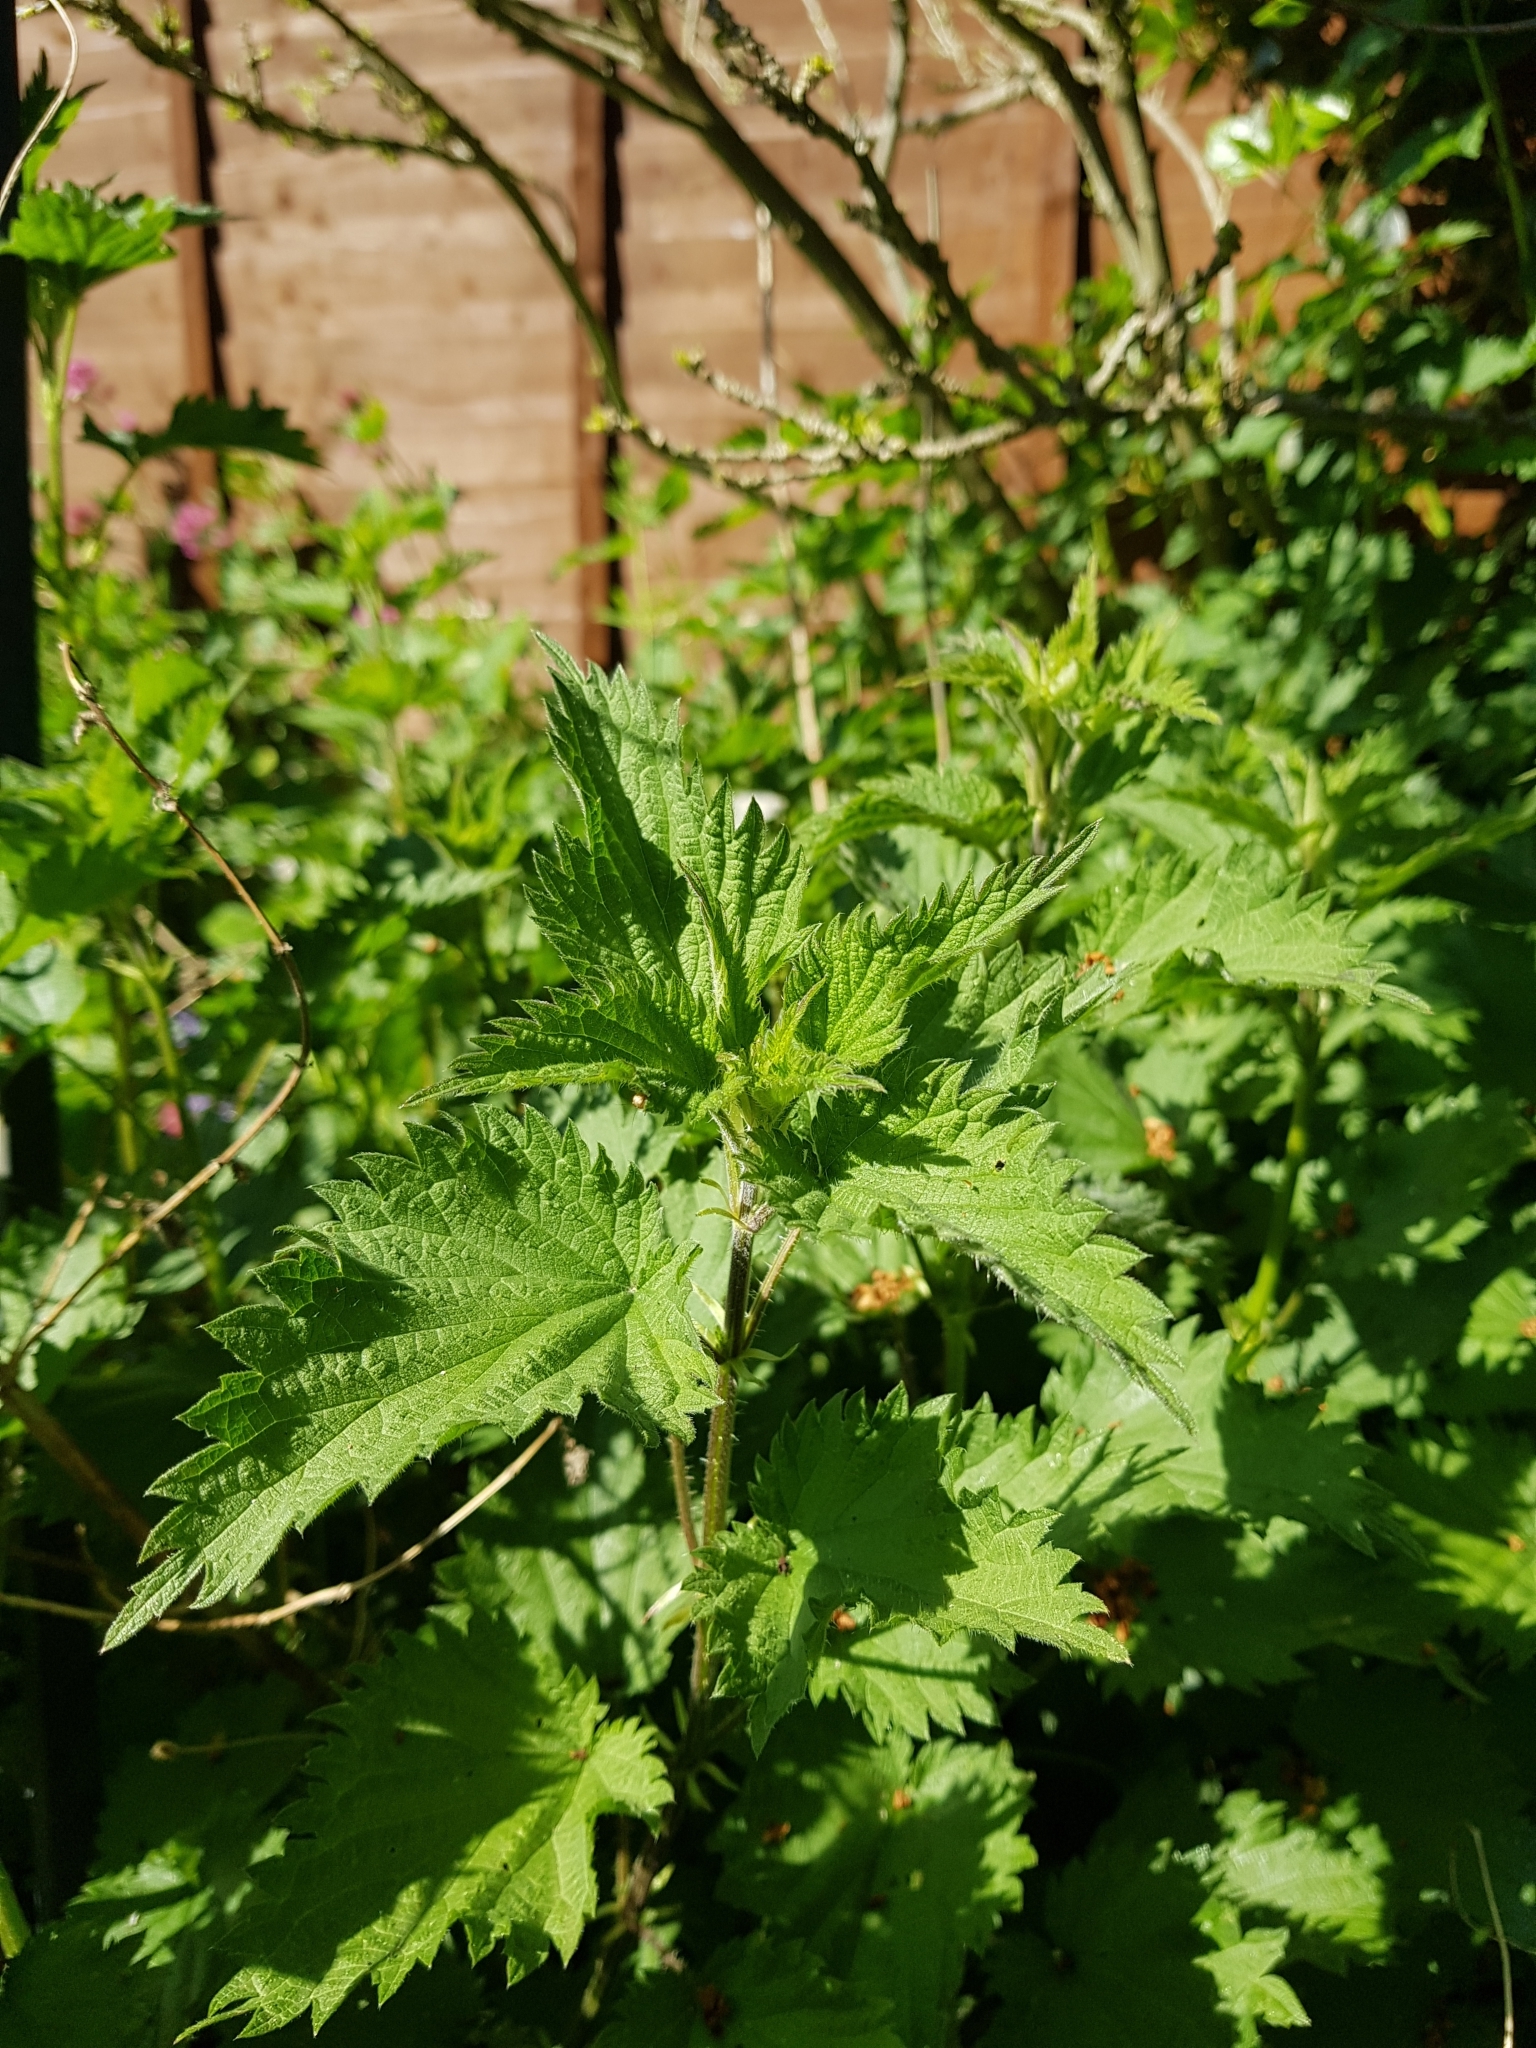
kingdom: Plantae
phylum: Tracheophyta
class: Magnoliopsida
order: Rosales
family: Urticaceae
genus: Urtica
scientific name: Urtica dioica
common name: Common nettle
